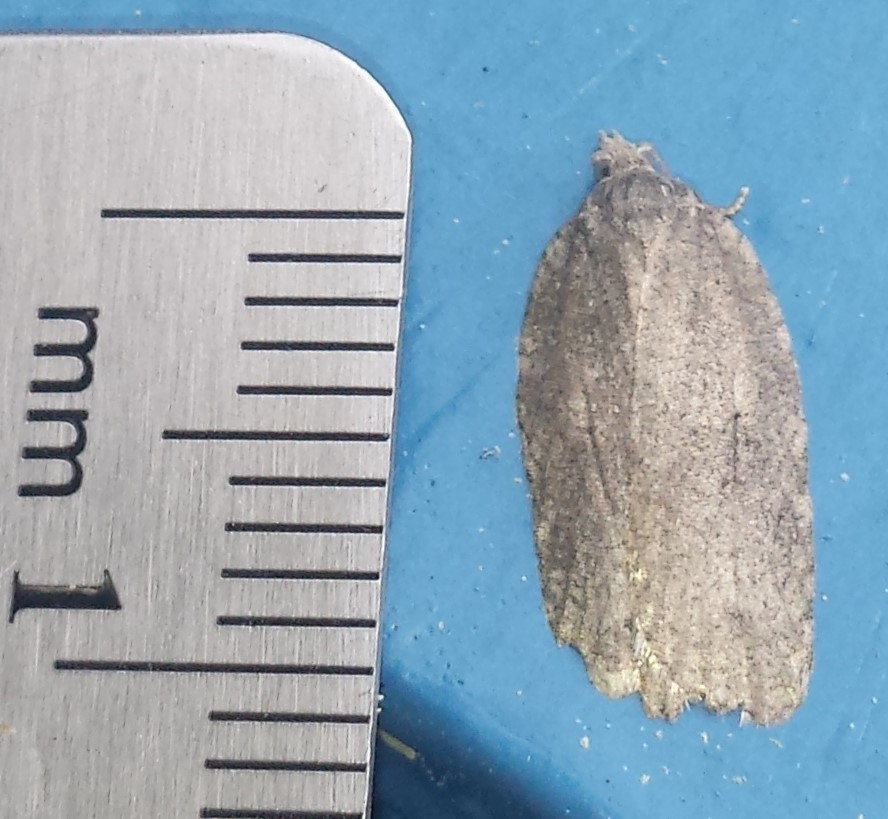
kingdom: Animalia
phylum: Arthropoda
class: Insecta
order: Lepidoptera
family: Tortricidae
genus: Amorbia
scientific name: Amorbia humerosana
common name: White-lined leafroller moth
